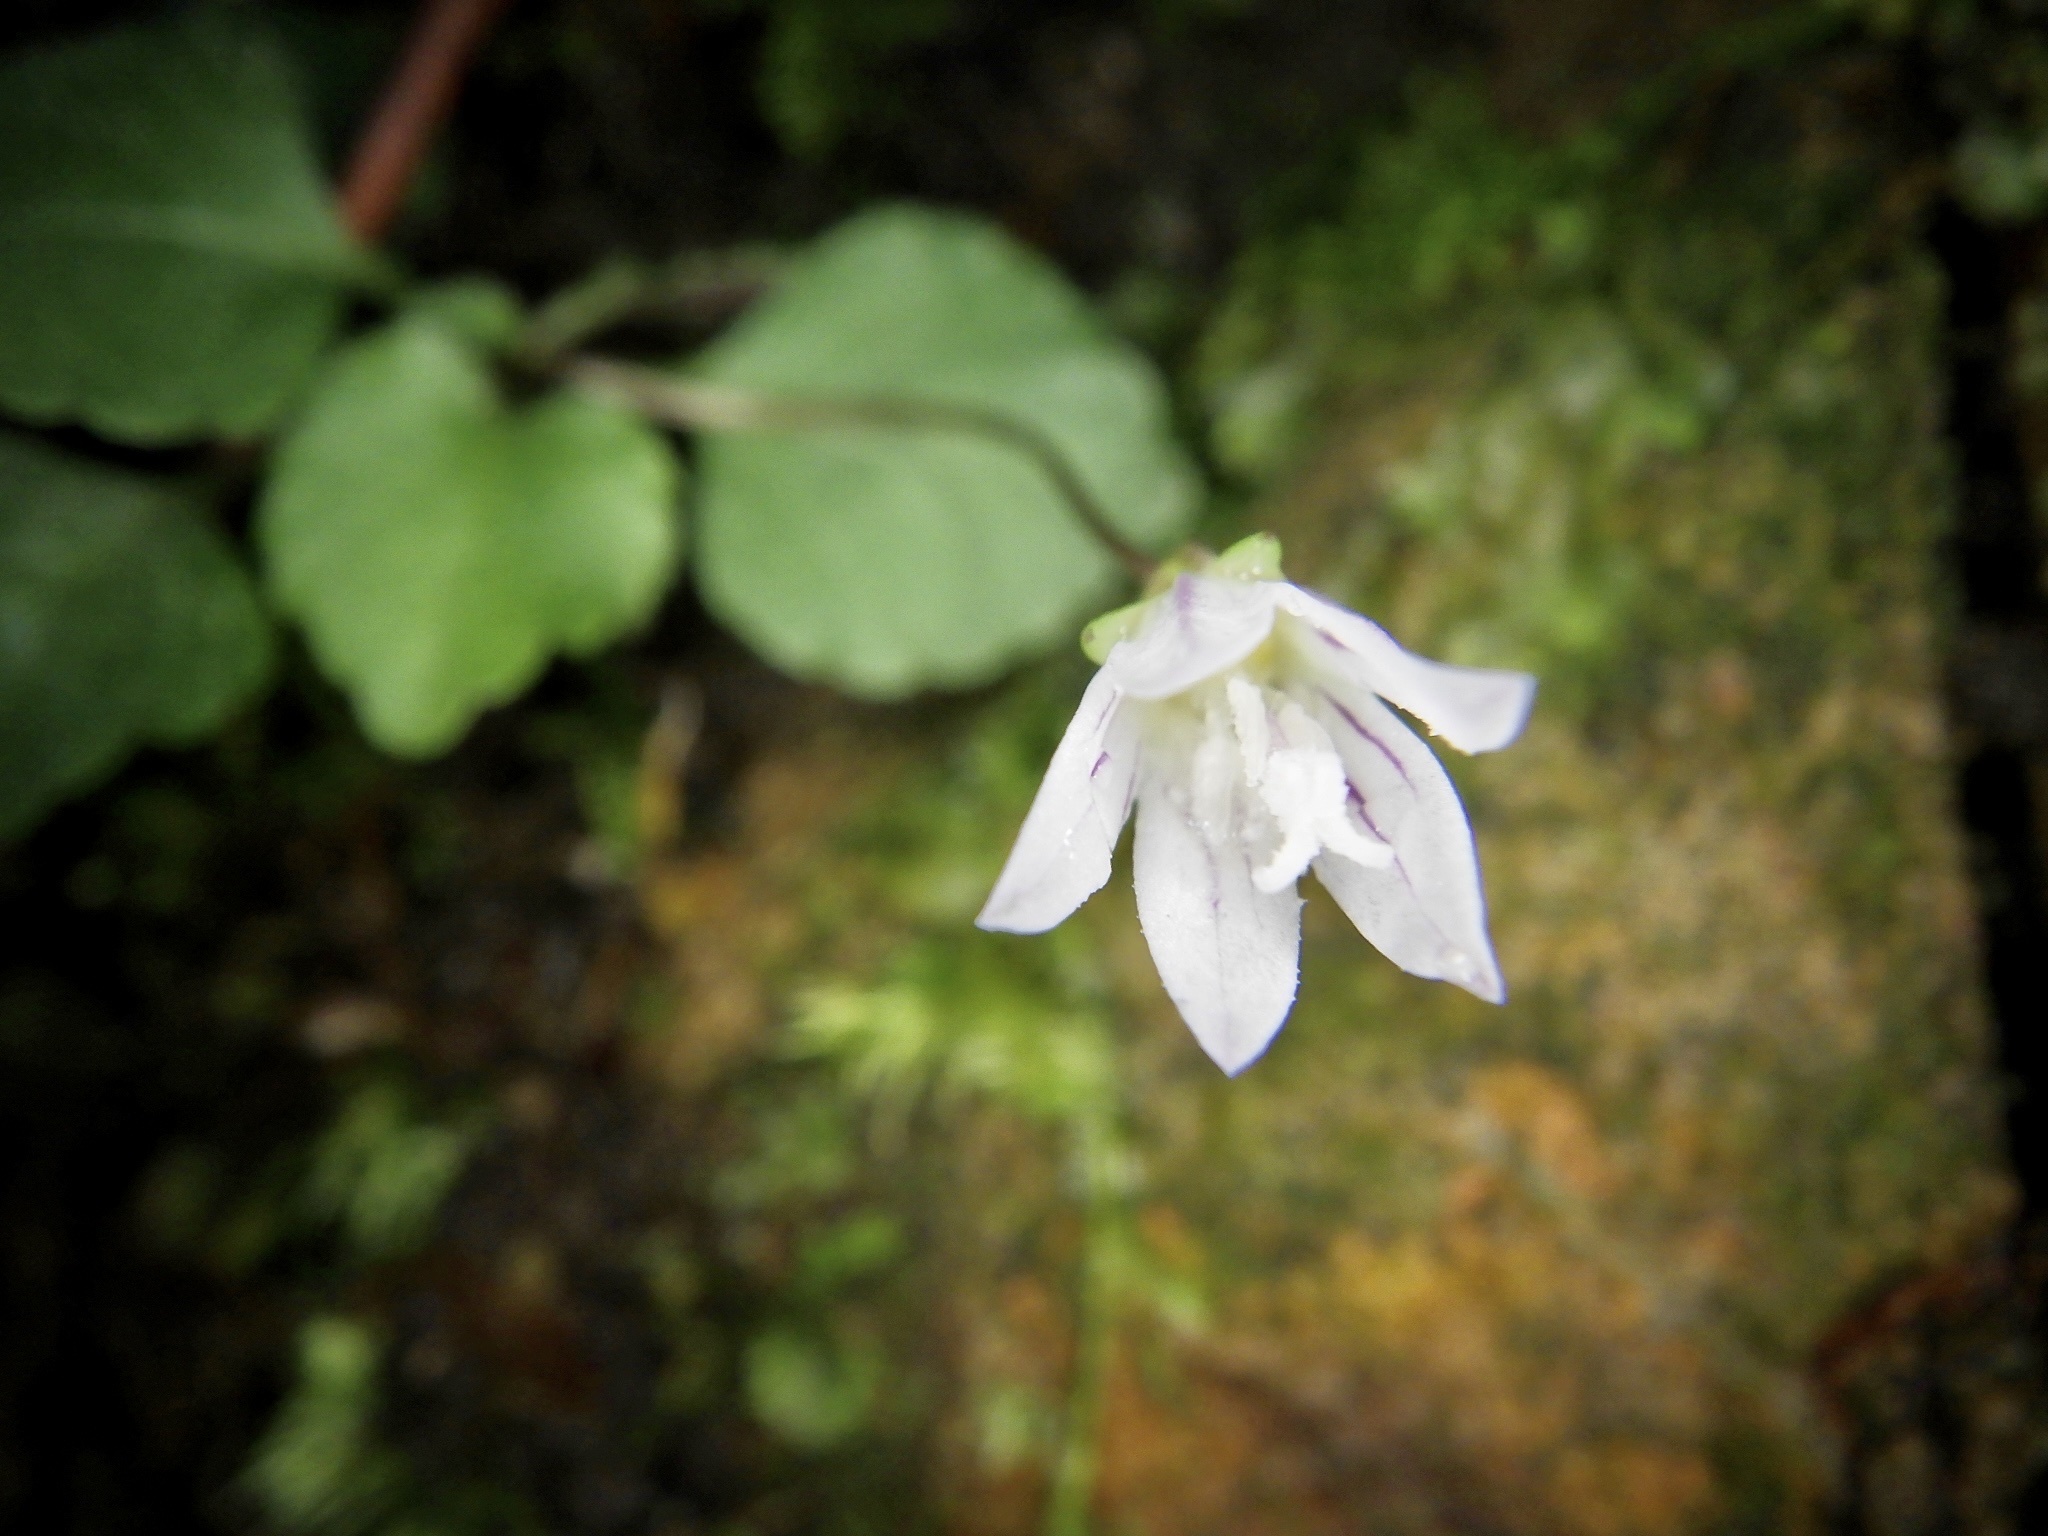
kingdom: Plantae
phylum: Tracheophyta
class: Magnoliopsida
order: Asterales
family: Campanulaceae
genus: Peracarpa
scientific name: Peracarpa carnosa
